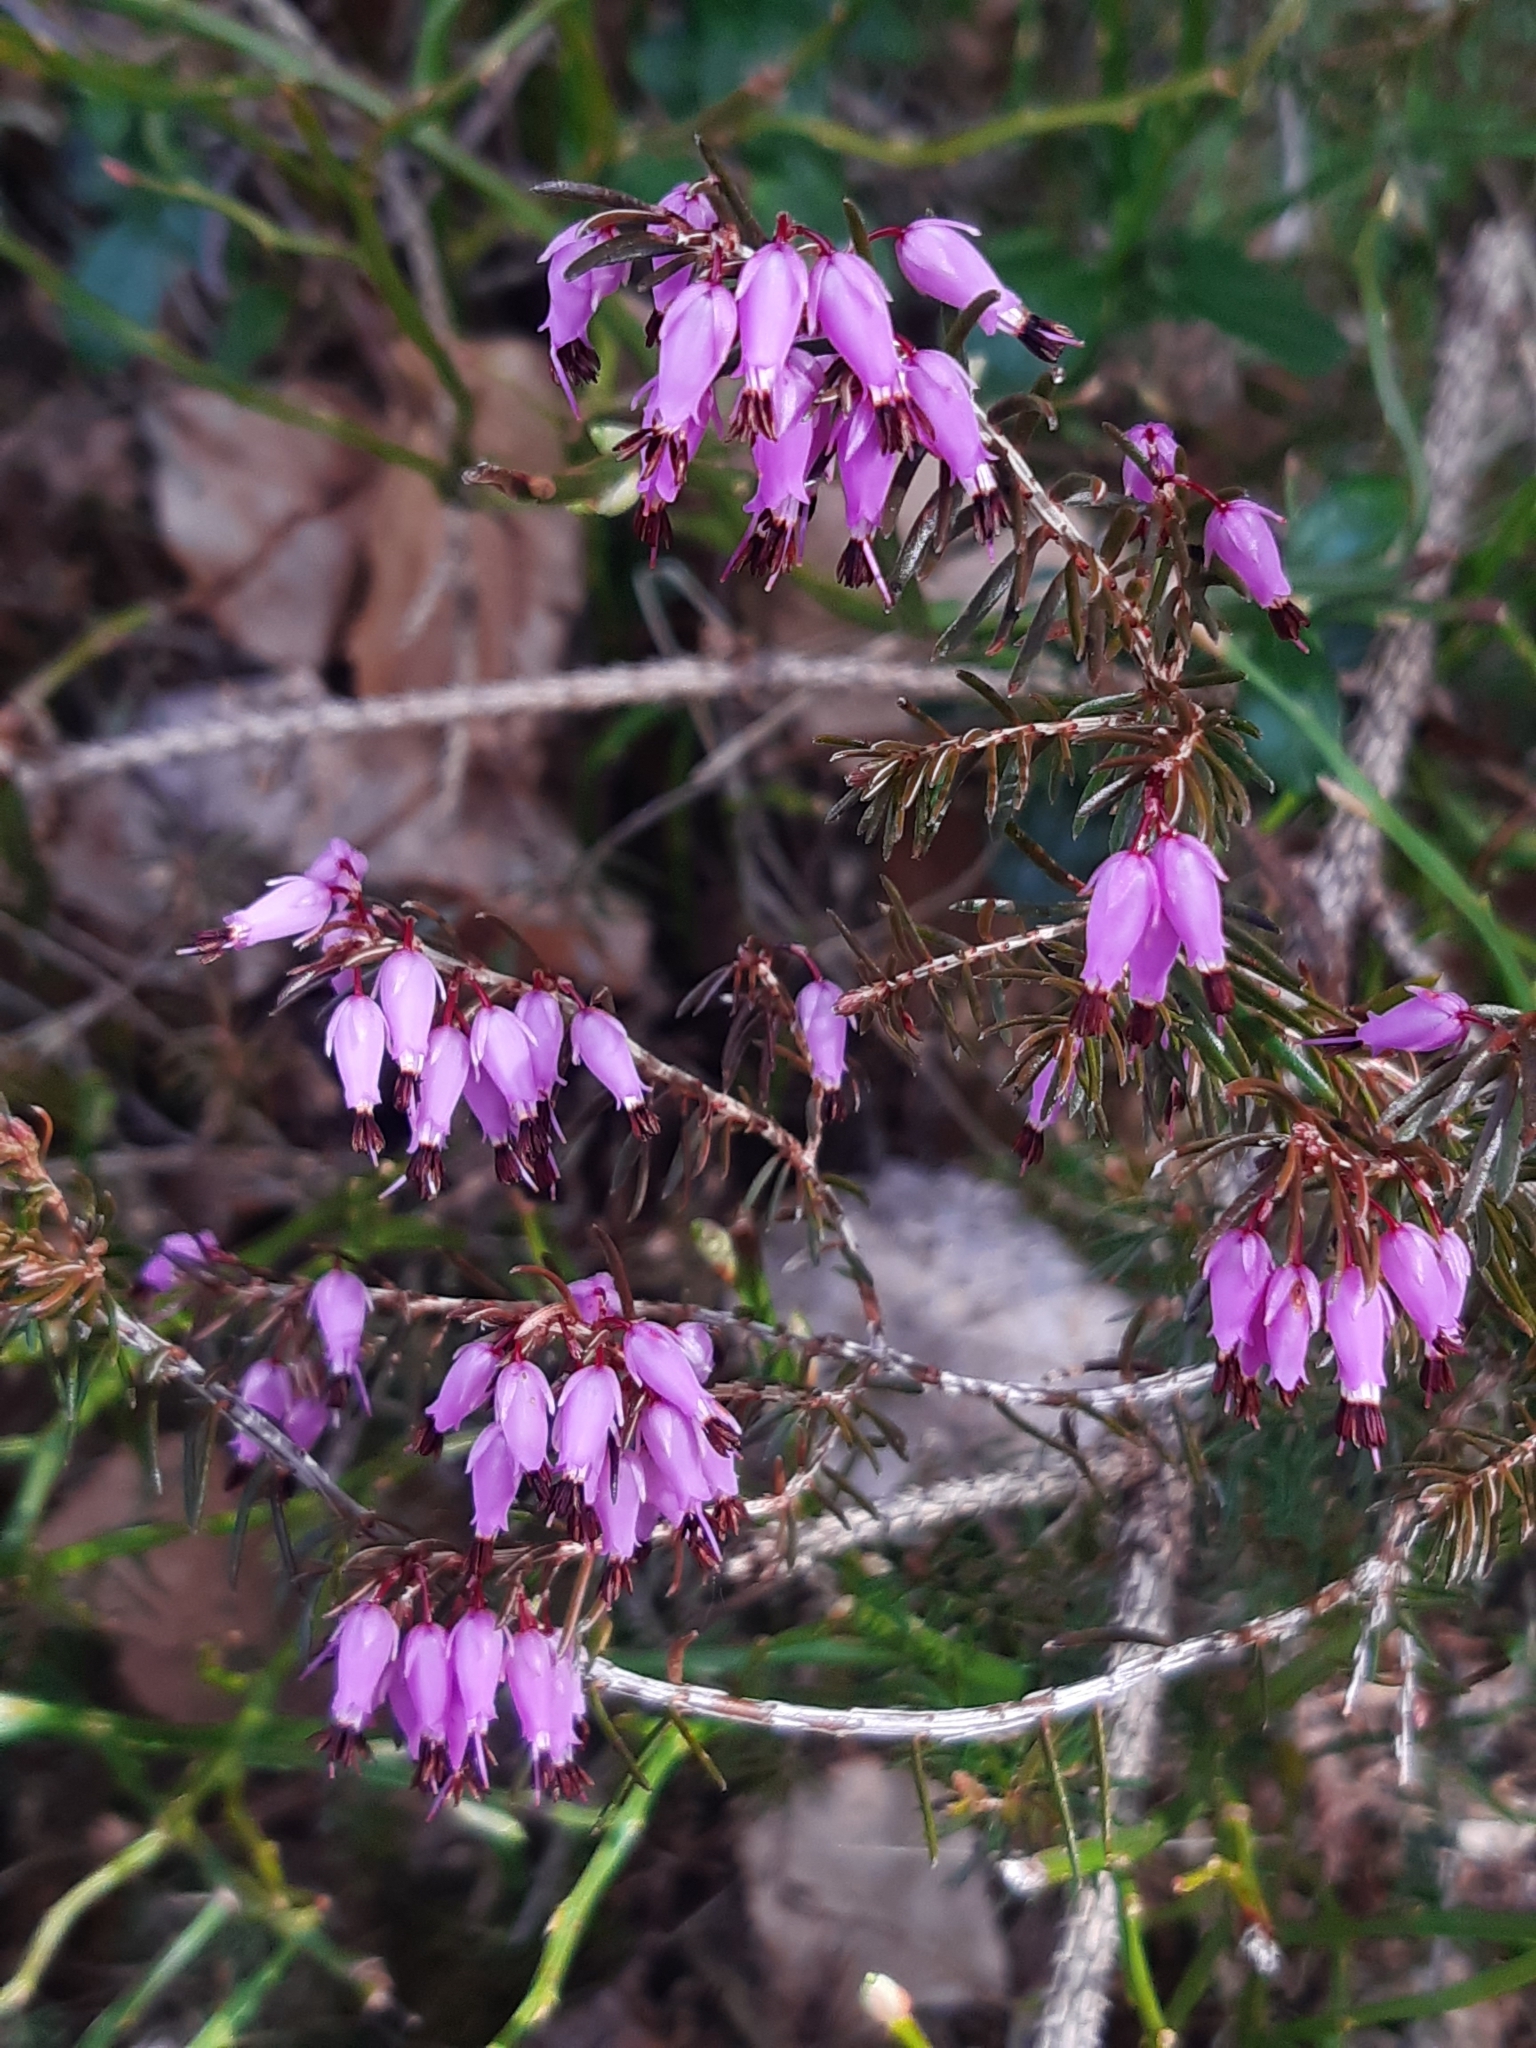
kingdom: Plantae
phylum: Tracheophyta
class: Magnoliopsida
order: Ericales
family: Ericaceae
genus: Erica
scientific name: Erica carnea
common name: Winter heath
